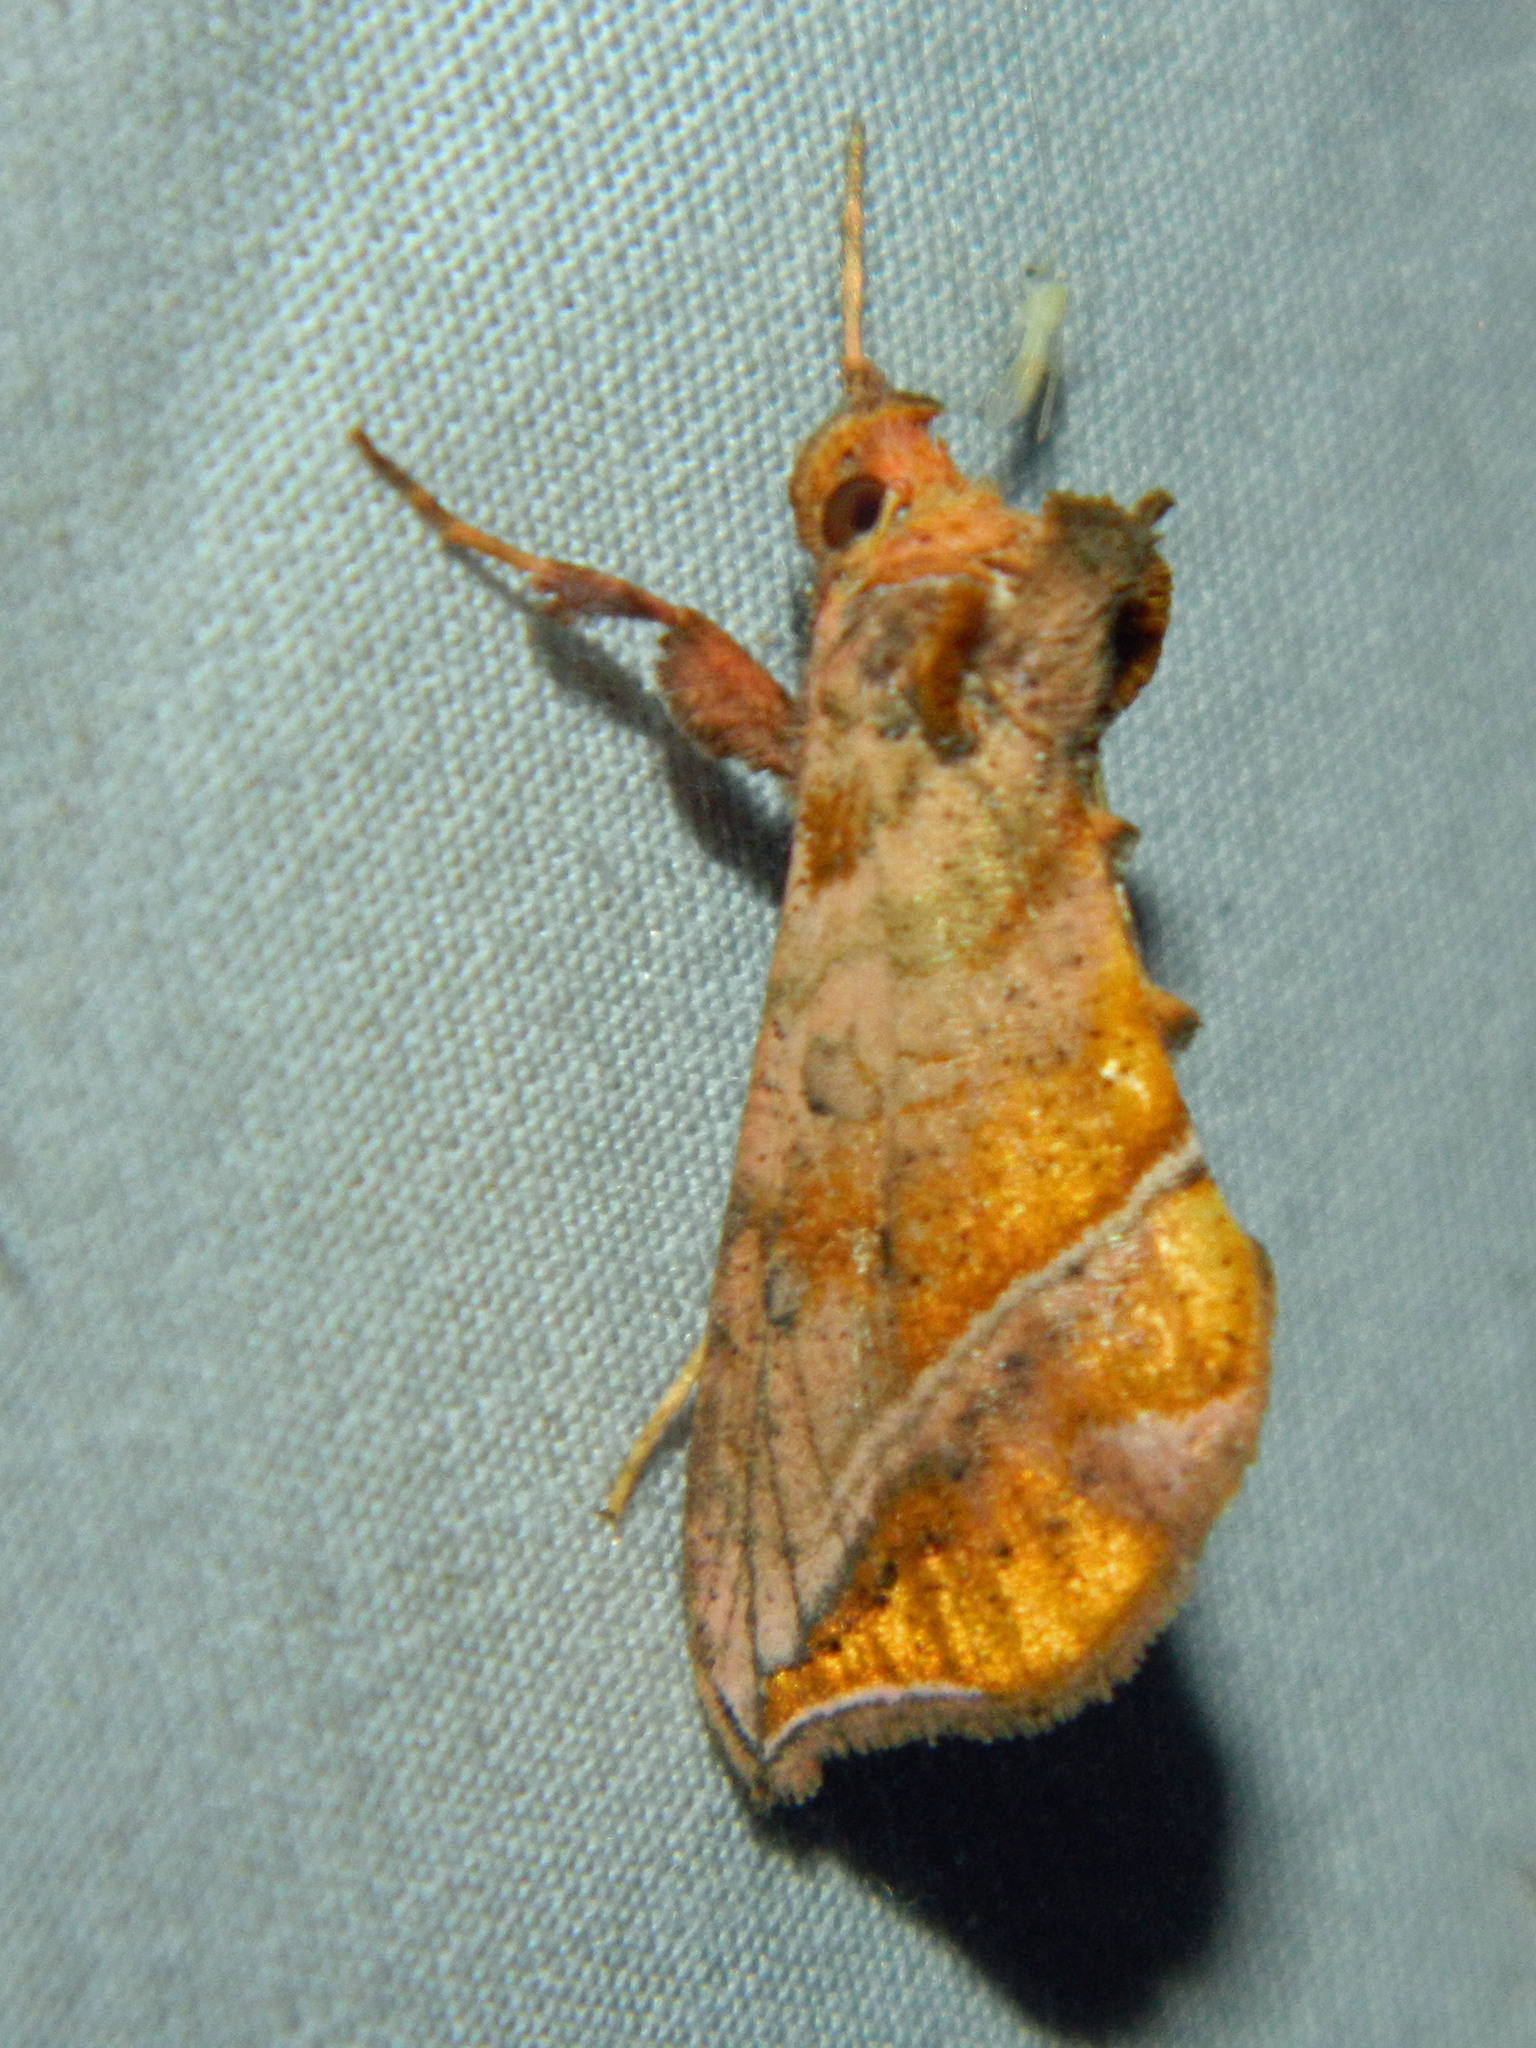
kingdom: Animalia
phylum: Arthropoda
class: Insecta
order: Lepidoptera
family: Noctuidae
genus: Pseudeva
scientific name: Pseudeva purpurigera
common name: Straight-lined looper moth
